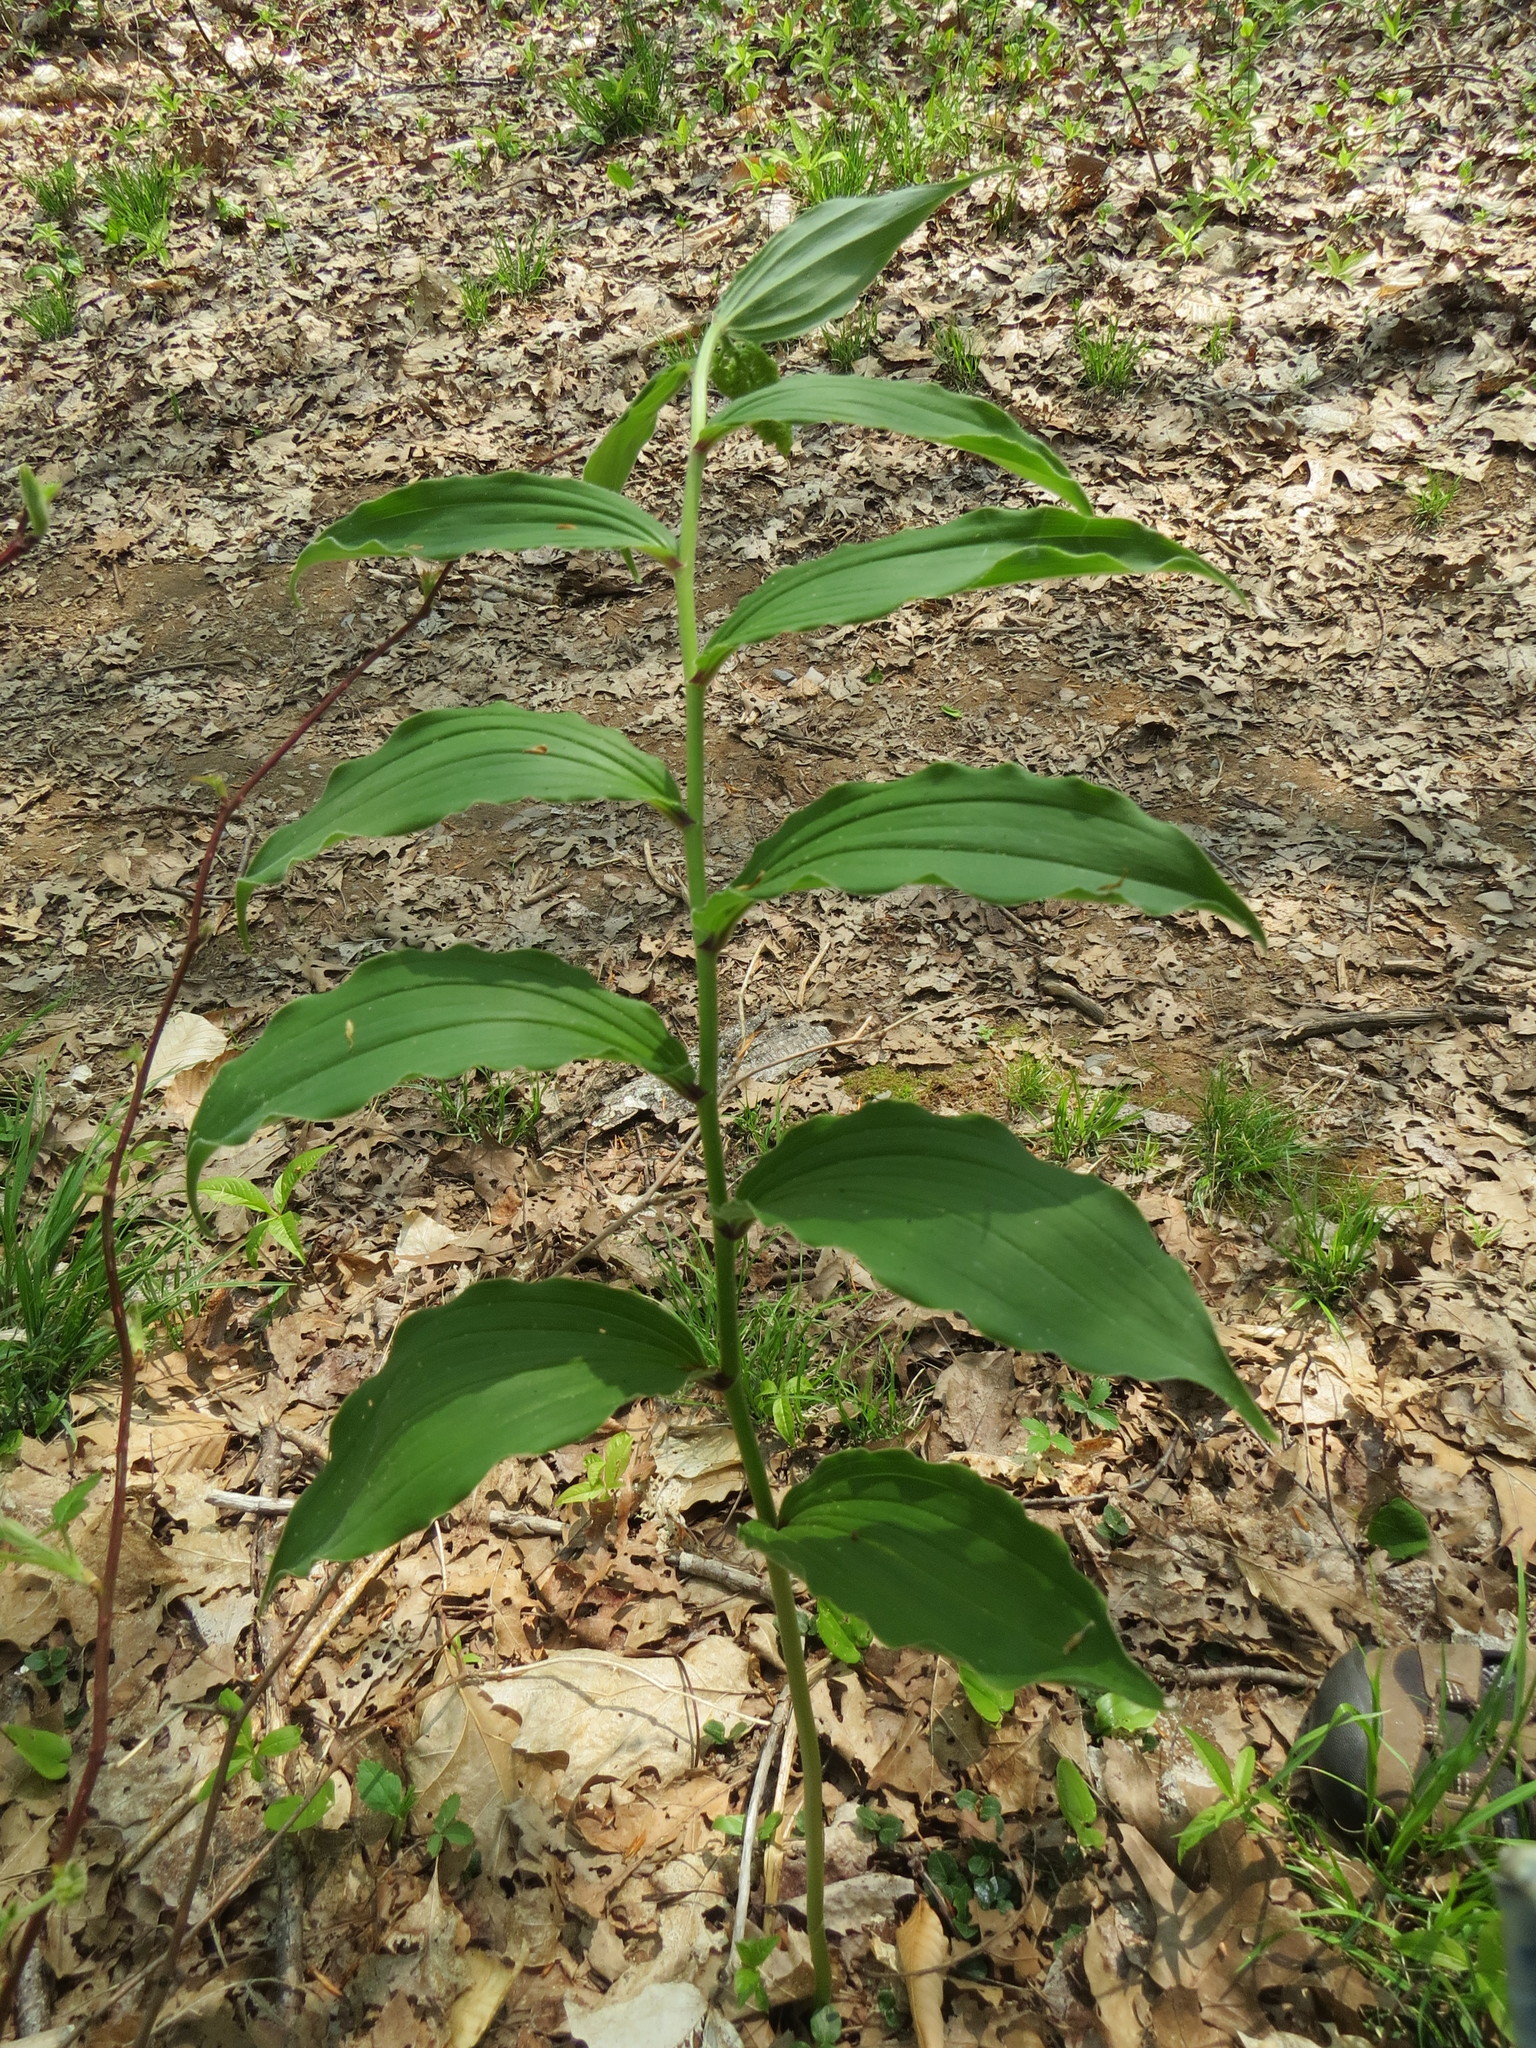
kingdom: Plantae
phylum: Tracheophyta
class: Liliopsida
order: Asparagales
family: Asparagaceae
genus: Maianthemum
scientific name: Maianthemum racemosum
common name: False spikenard
